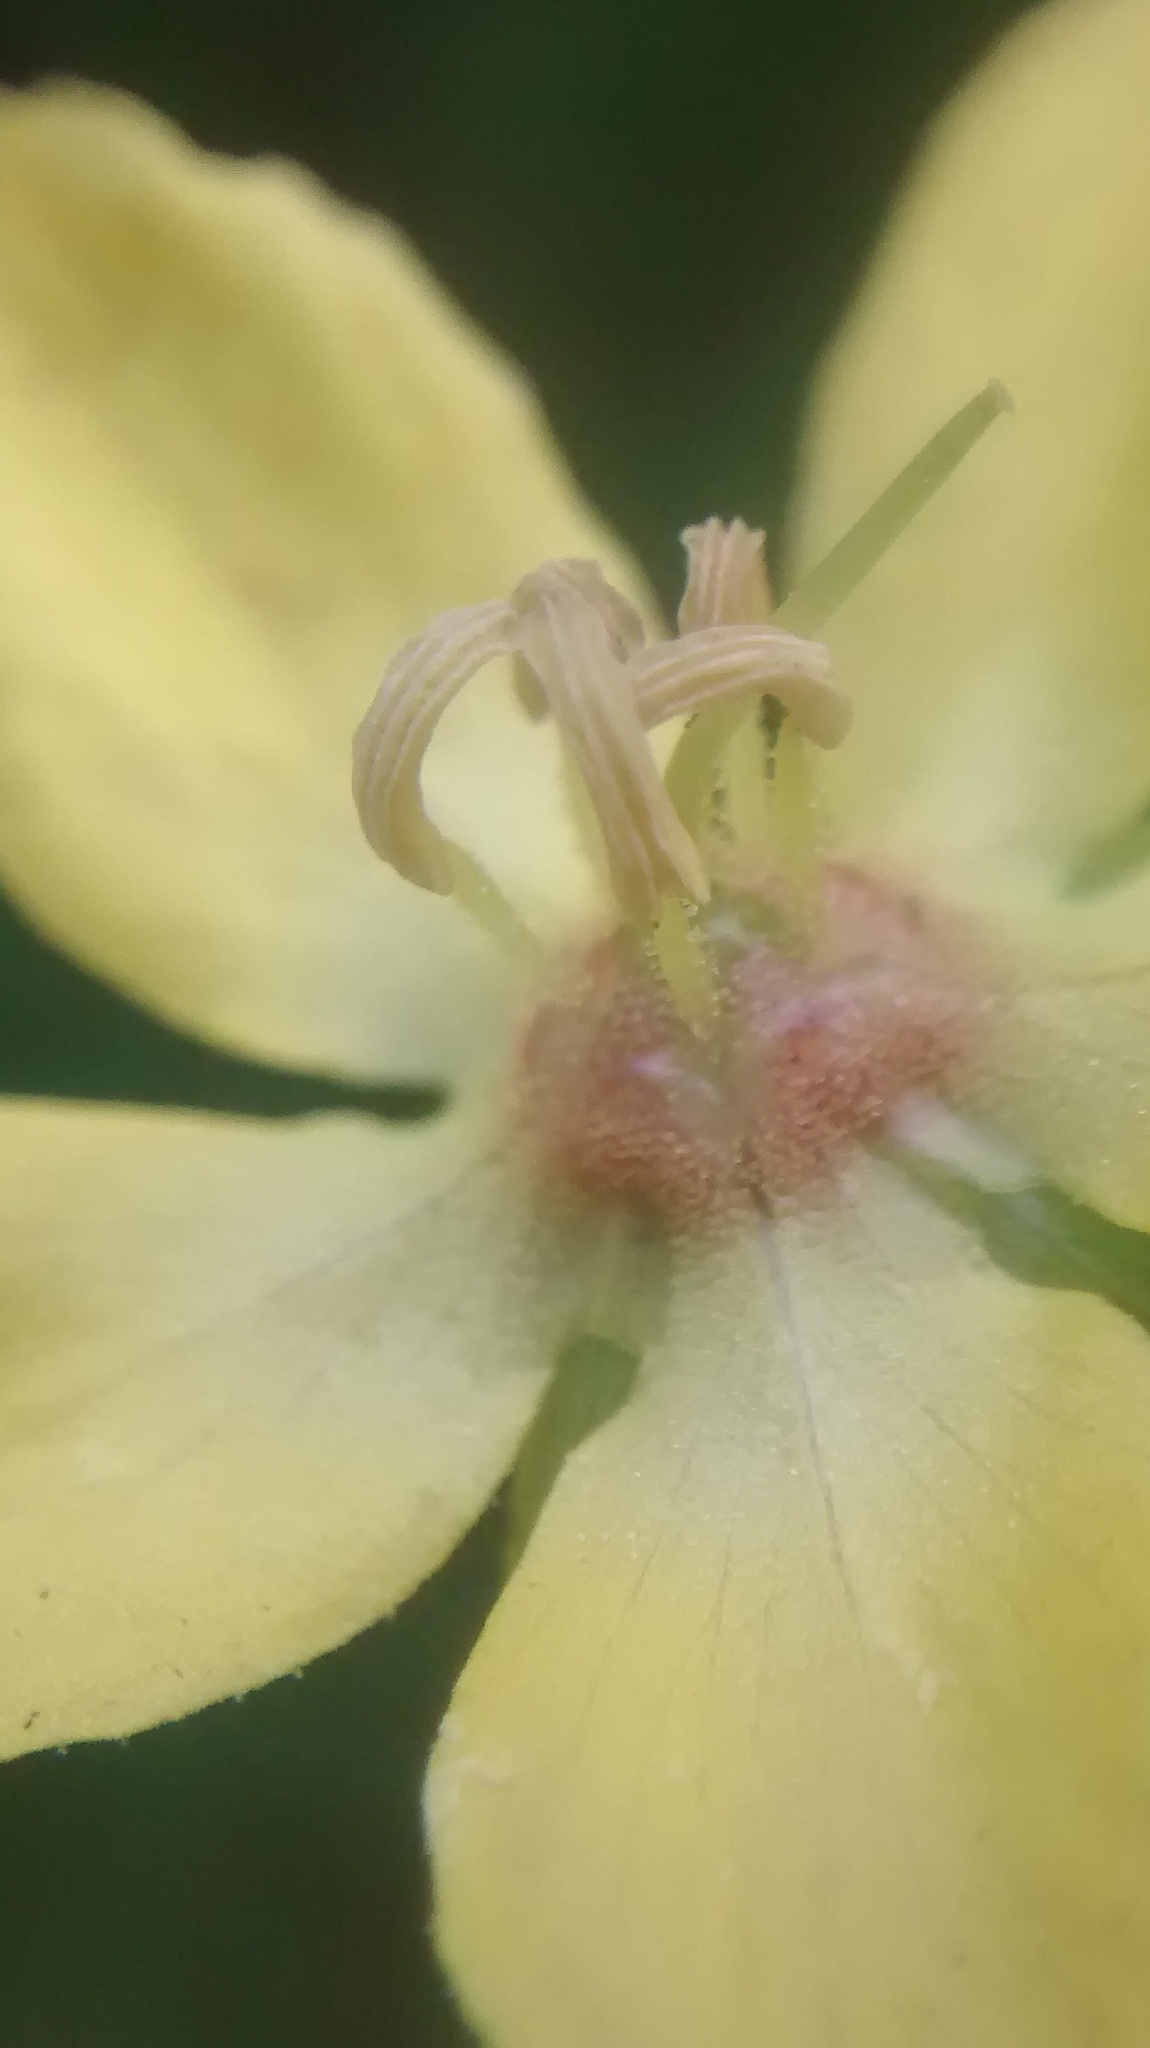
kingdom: Plantae
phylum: Tracheophyta
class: Magnoliopsida
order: Ericales
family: Primulaceae
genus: Lysimachia
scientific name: Lysimachia ciliata
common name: Fringed loosestrife
